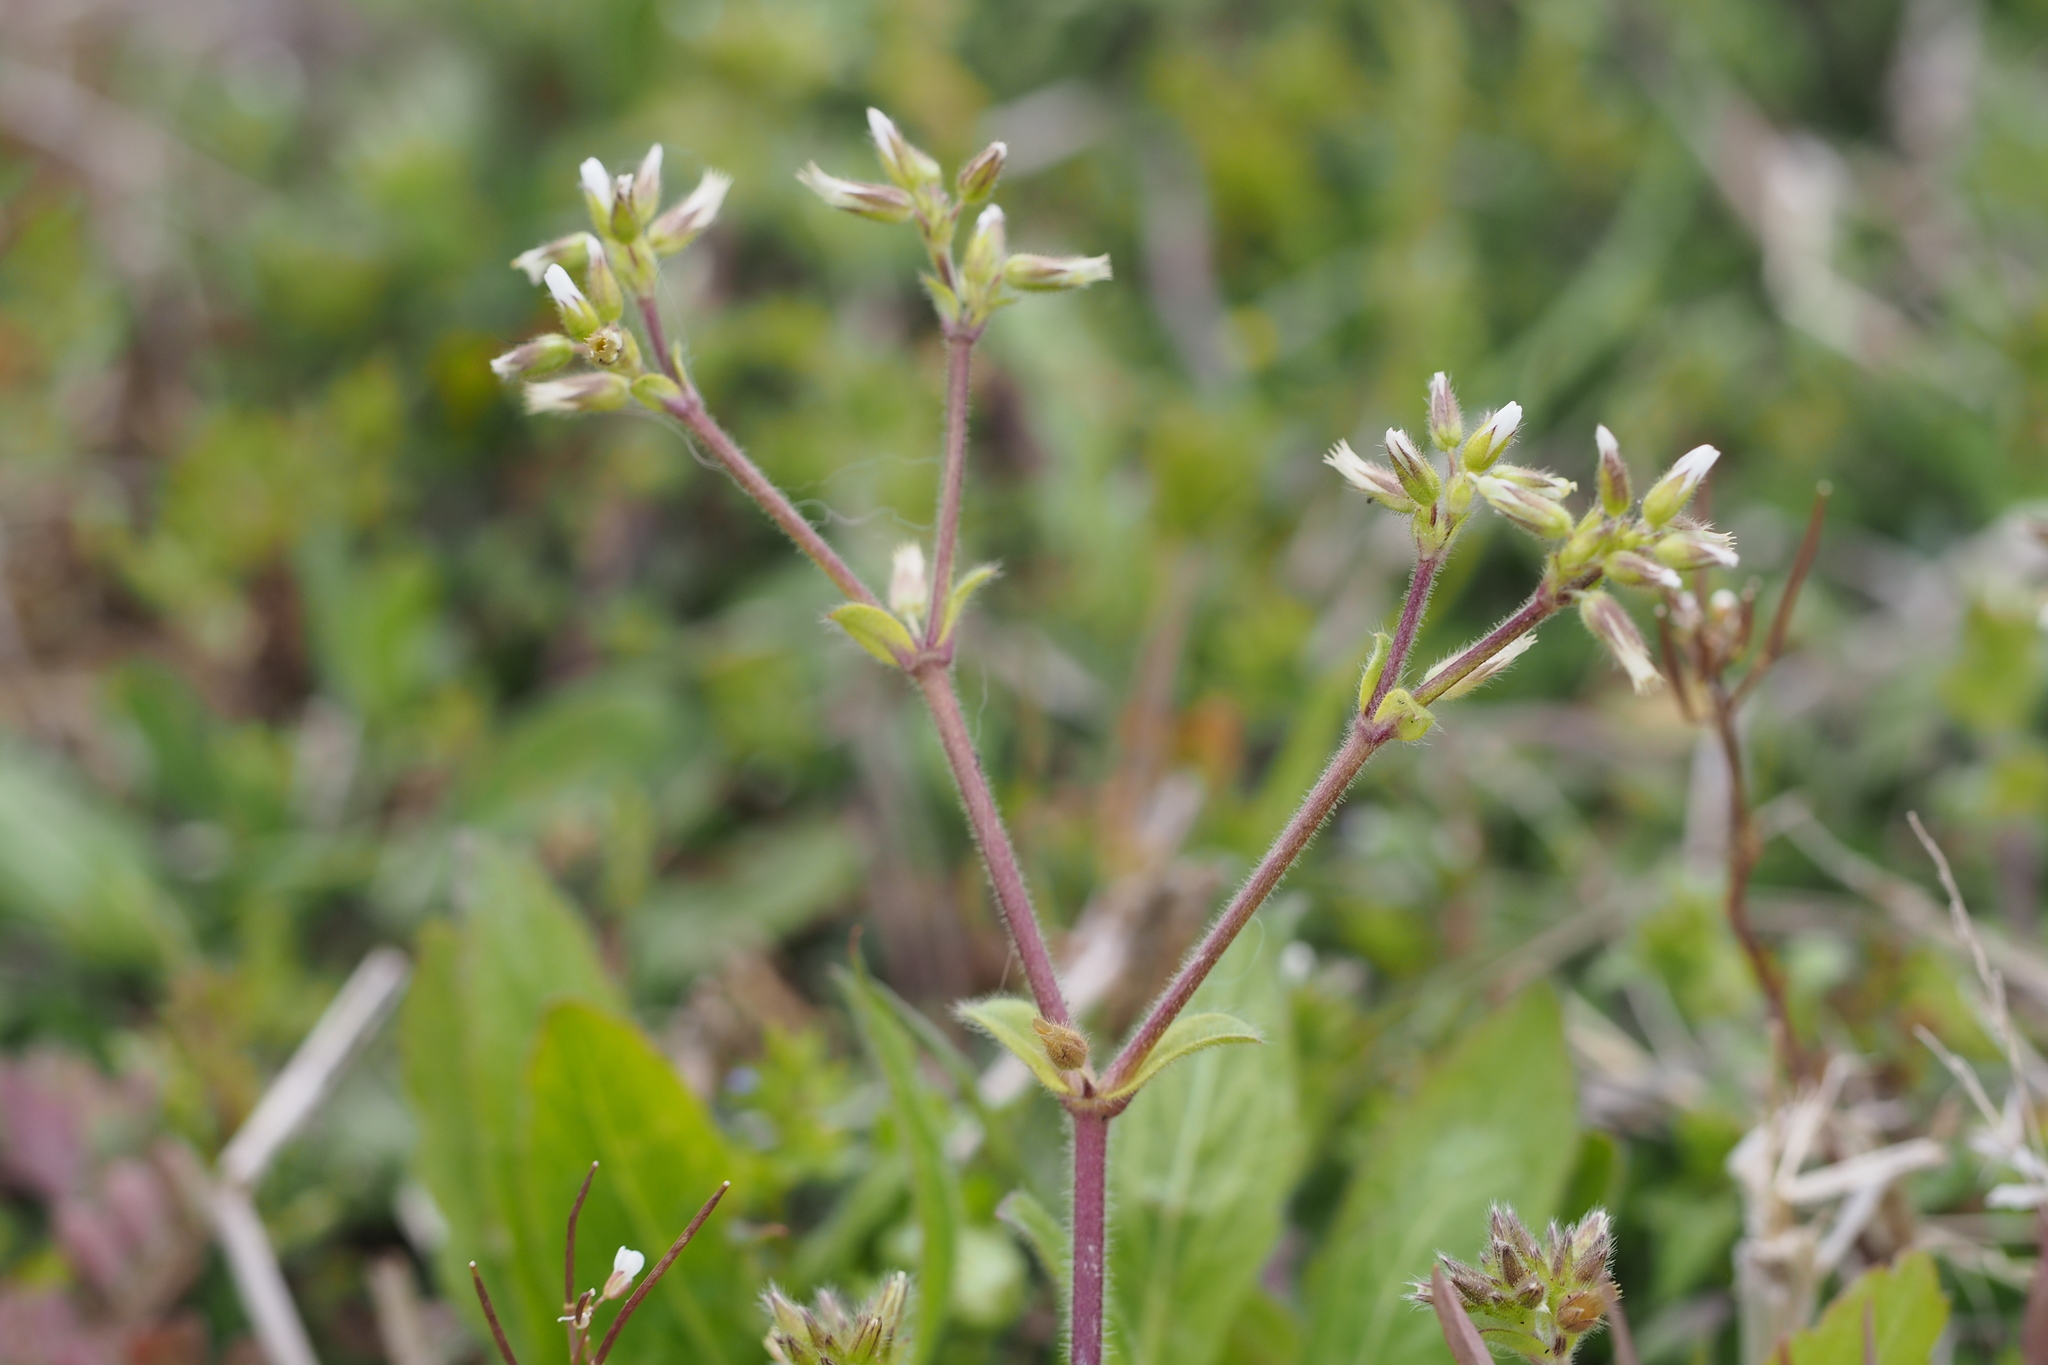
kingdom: Plantae
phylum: Tracheophyta
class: Magnoliopsida
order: Caryophyllales
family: Caryophyllaceae
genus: Cerastium
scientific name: Cerastium glomeratum
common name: Sticky chickweed
